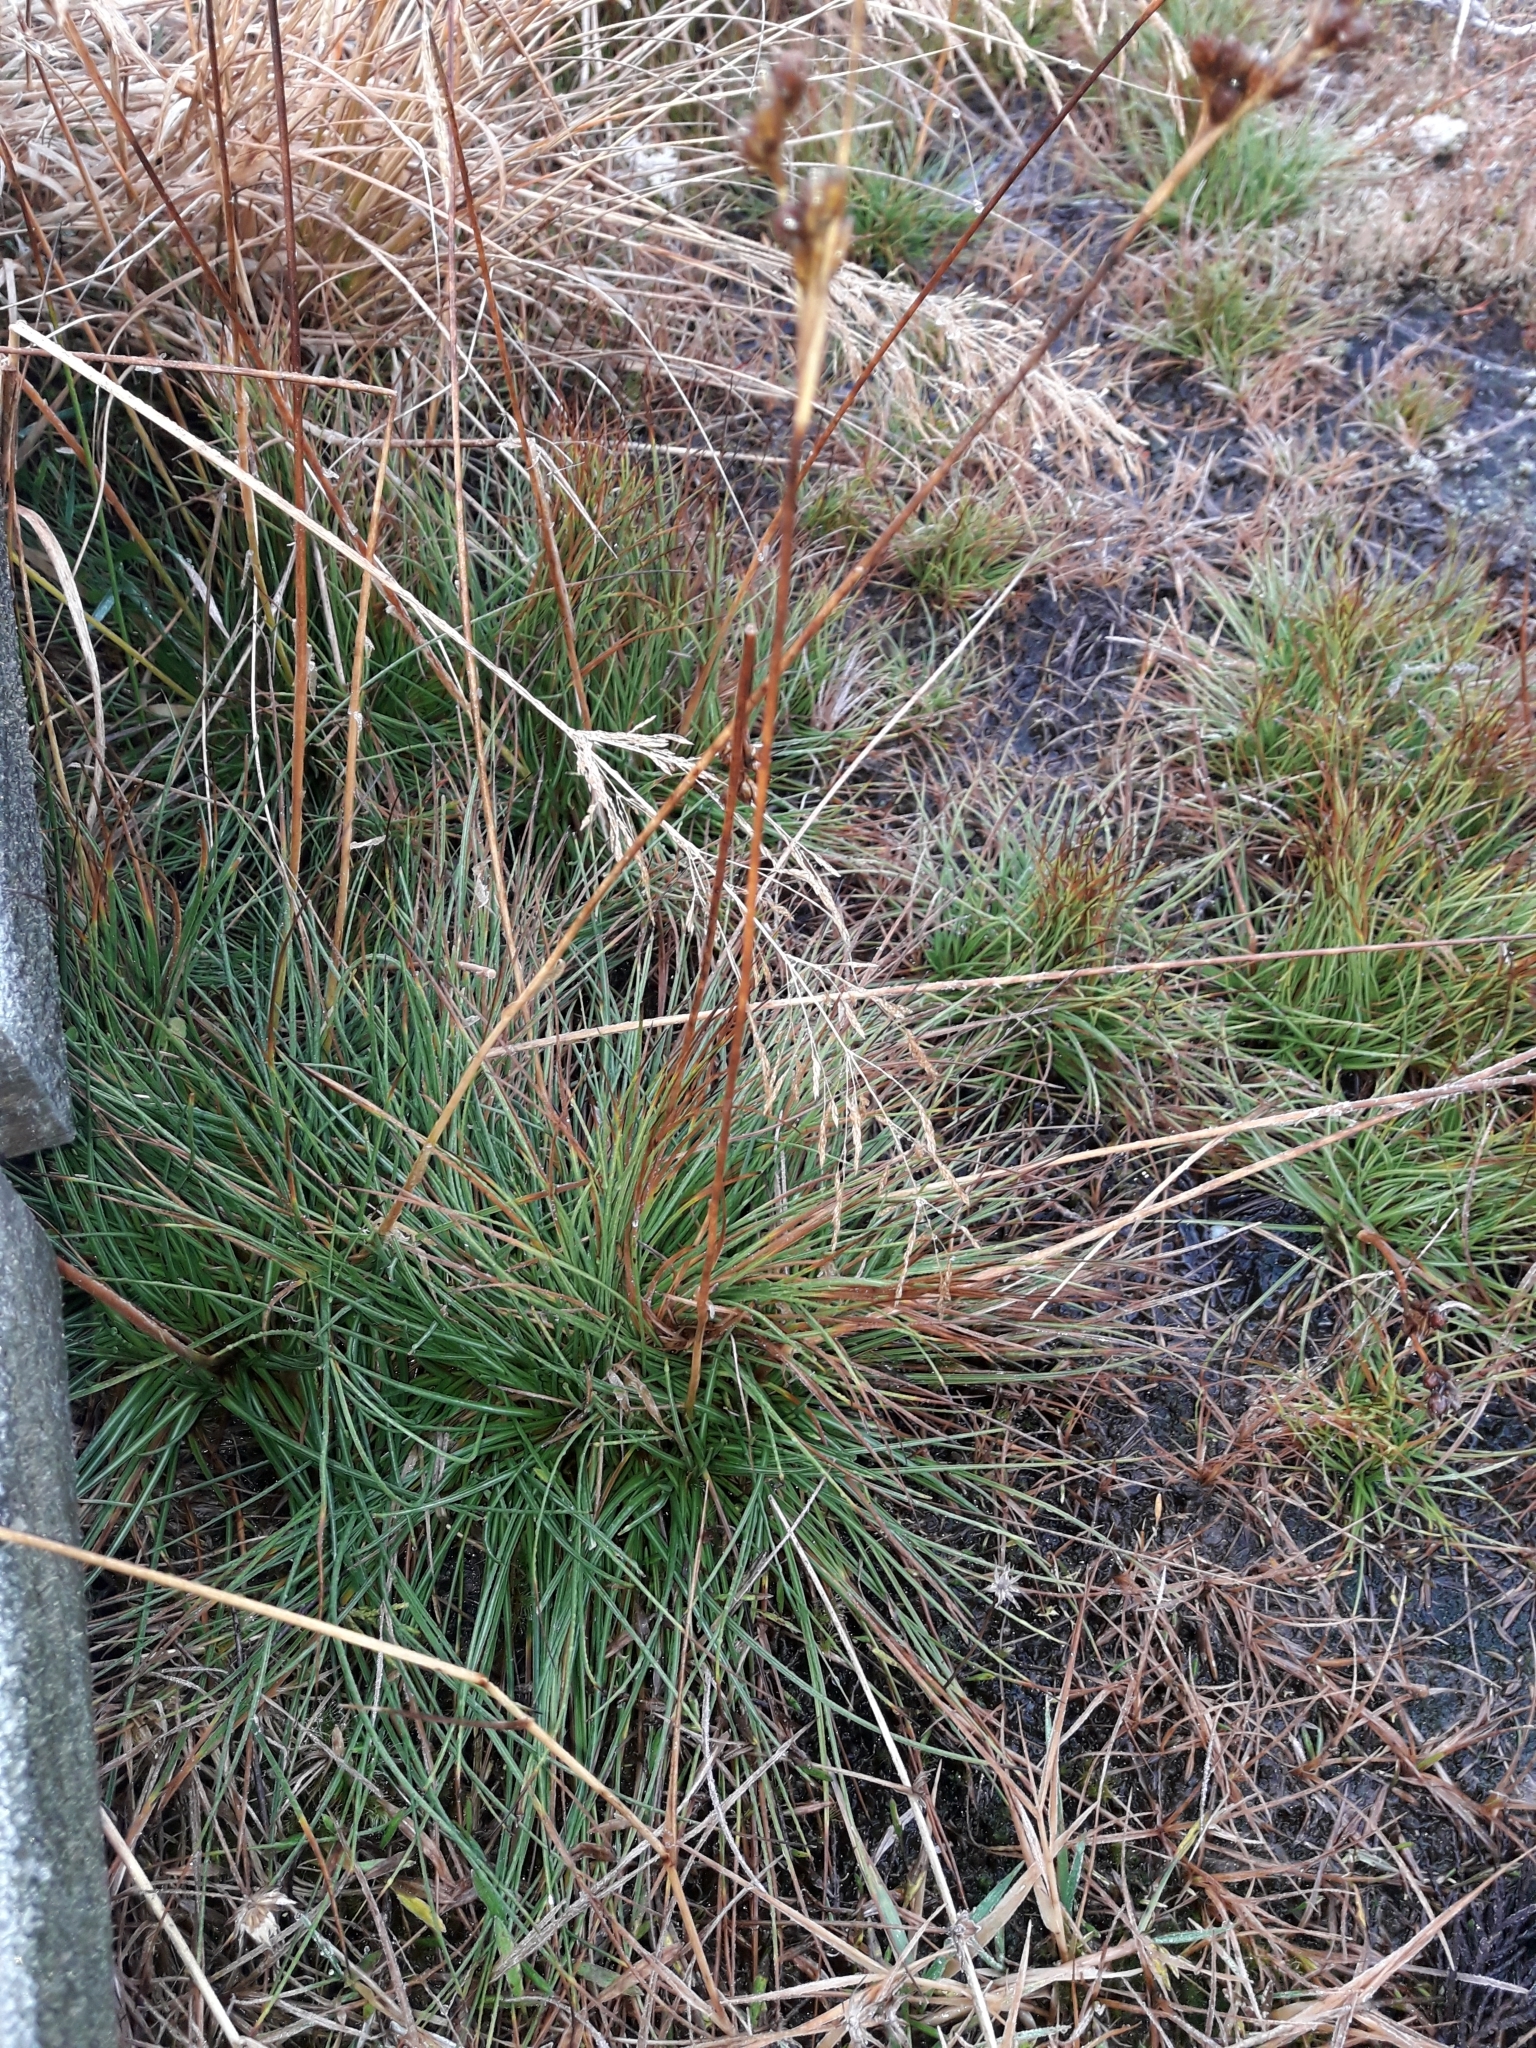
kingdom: Plantae
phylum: Tracheophyta
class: Liliopsida
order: Poales
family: Juncaceae
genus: Juncus
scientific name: Juncus squarrosus
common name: Heath rush
